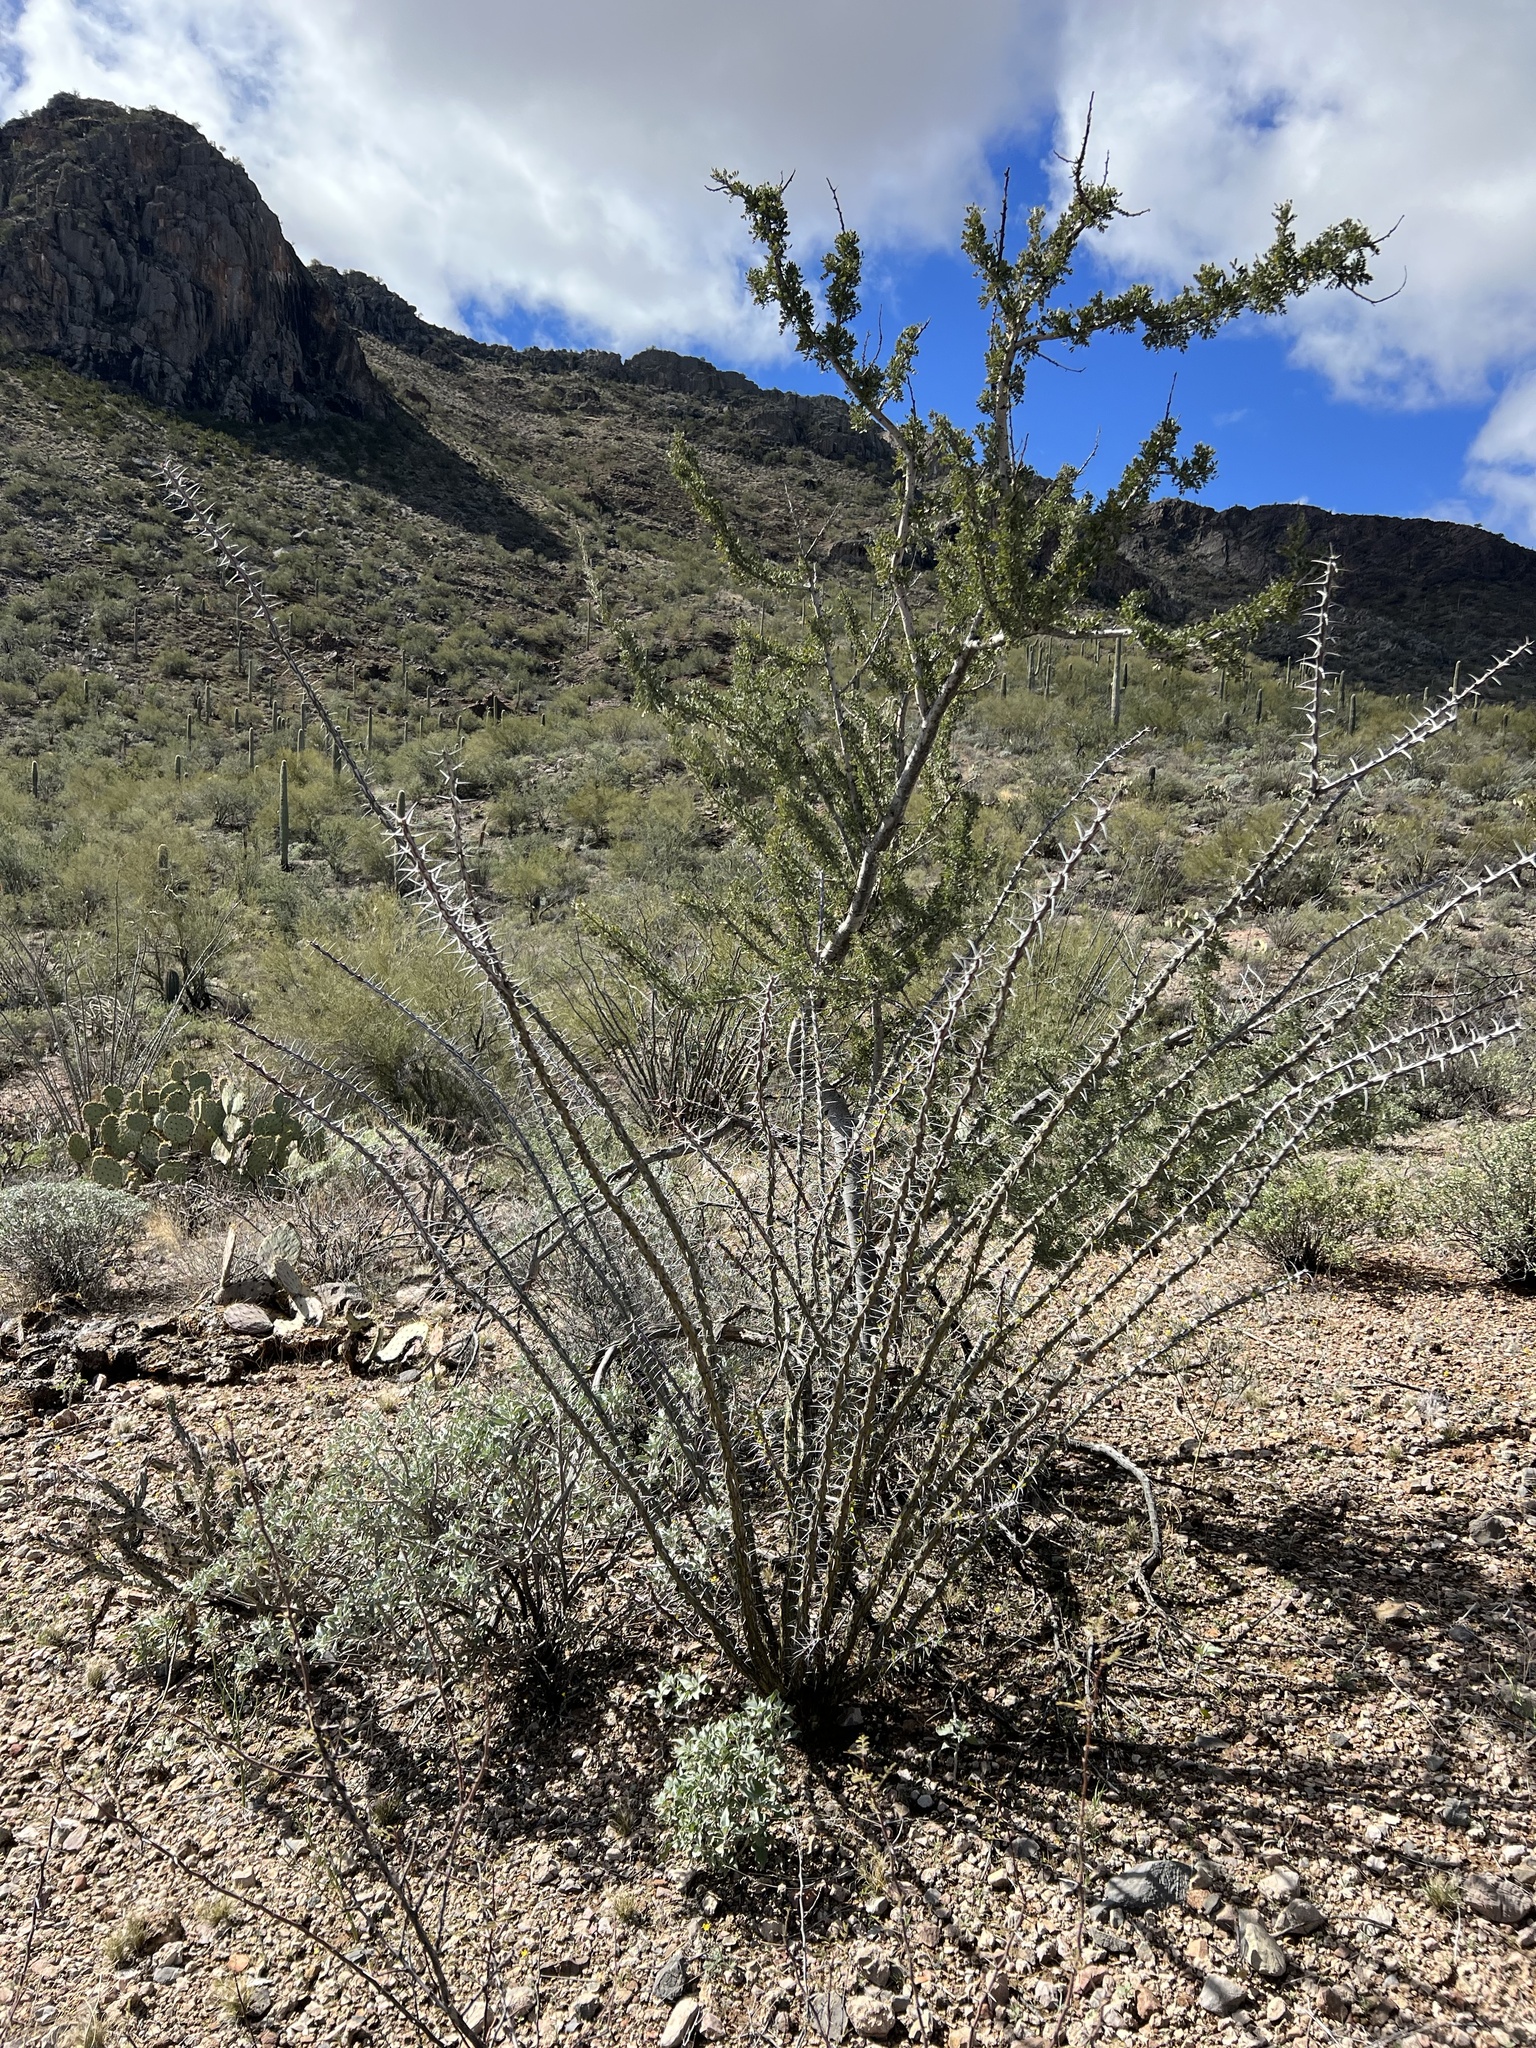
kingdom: Plantae
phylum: Tracheophyta
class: Magnoliopsida
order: Fabales
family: Fabaceae
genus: Olneya
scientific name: Olneya tesota
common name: Desert ironwood
